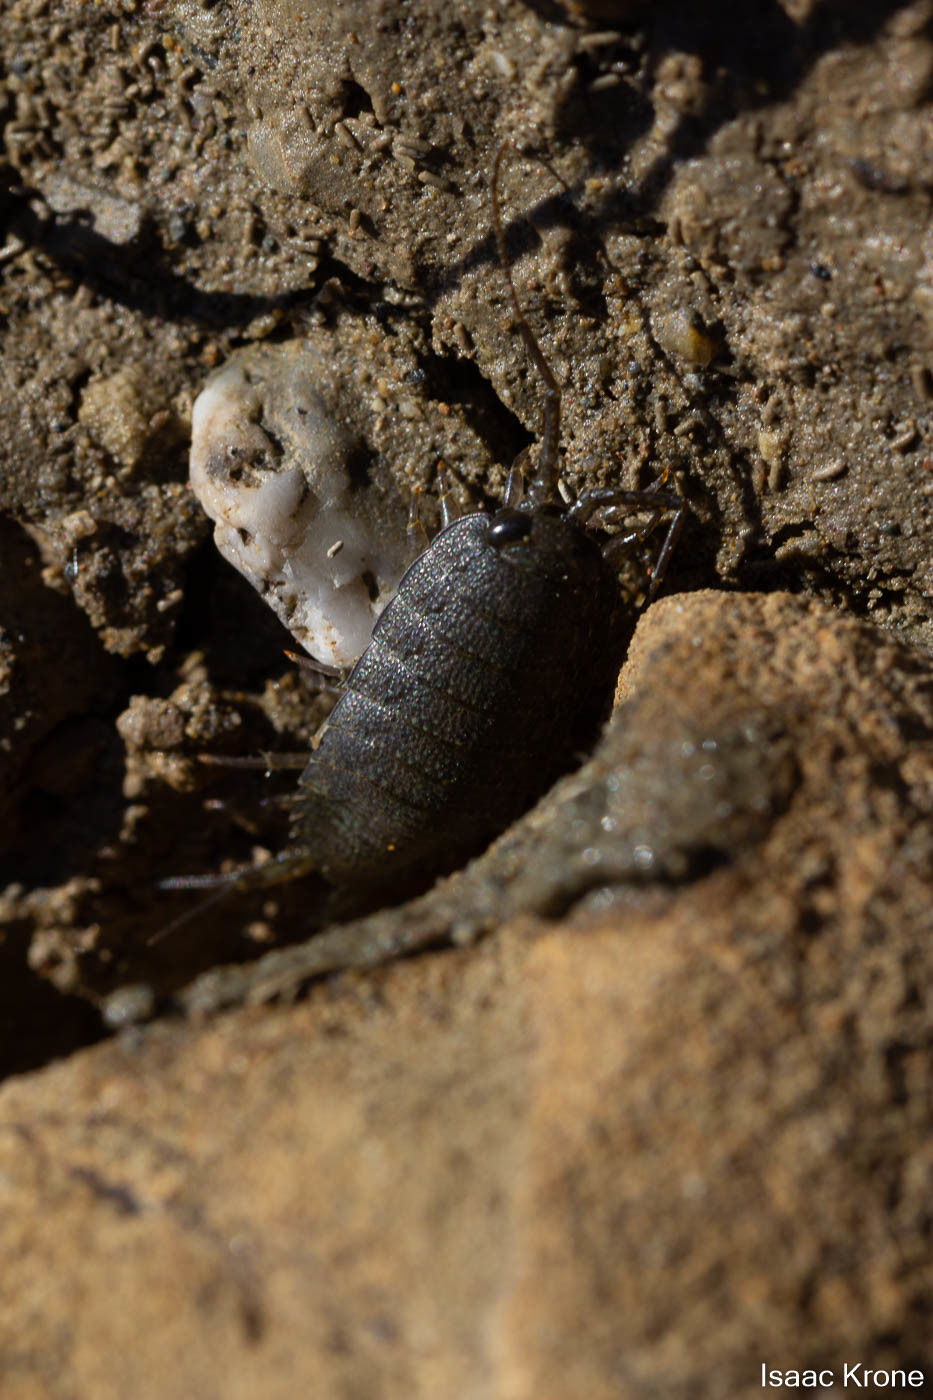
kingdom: Animalia
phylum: Arthropoda
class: Malacostraca
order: Isopoda
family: Ligiidae
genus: Ligia
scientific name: Ligia occidentalis
